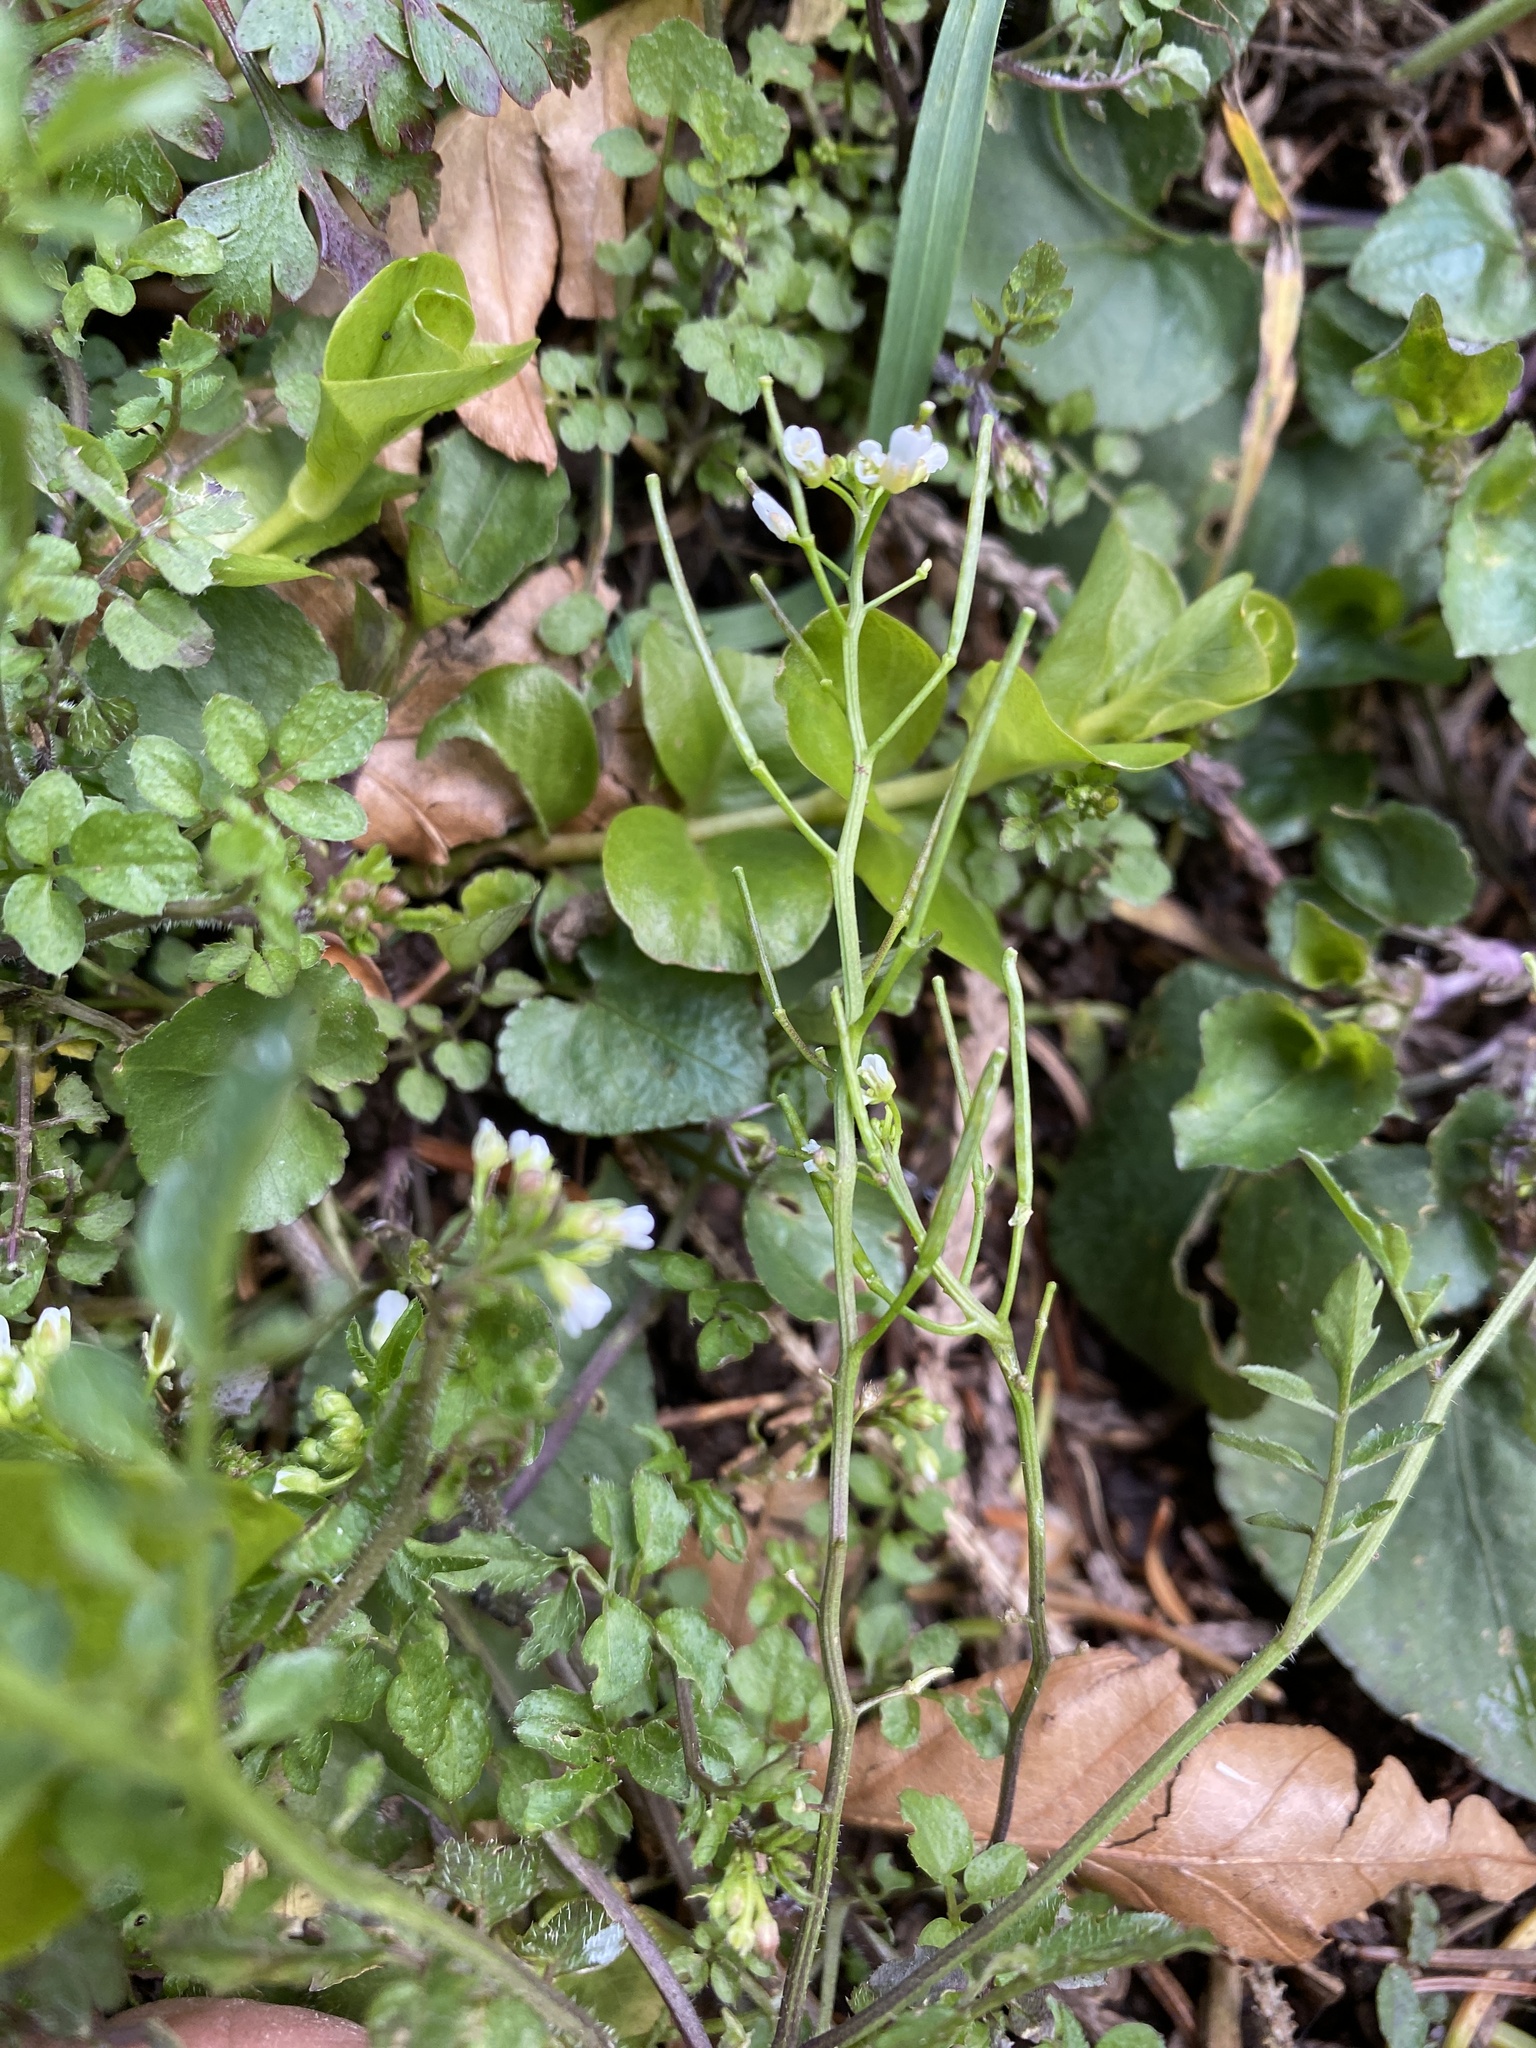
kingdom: Plantae
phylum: Tracheophyta
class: Magnoliopsida
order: Brassicales
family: Brassicaceae
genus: Cardamine
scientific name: Cardamine flexuosa
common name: Woodland bittercress
